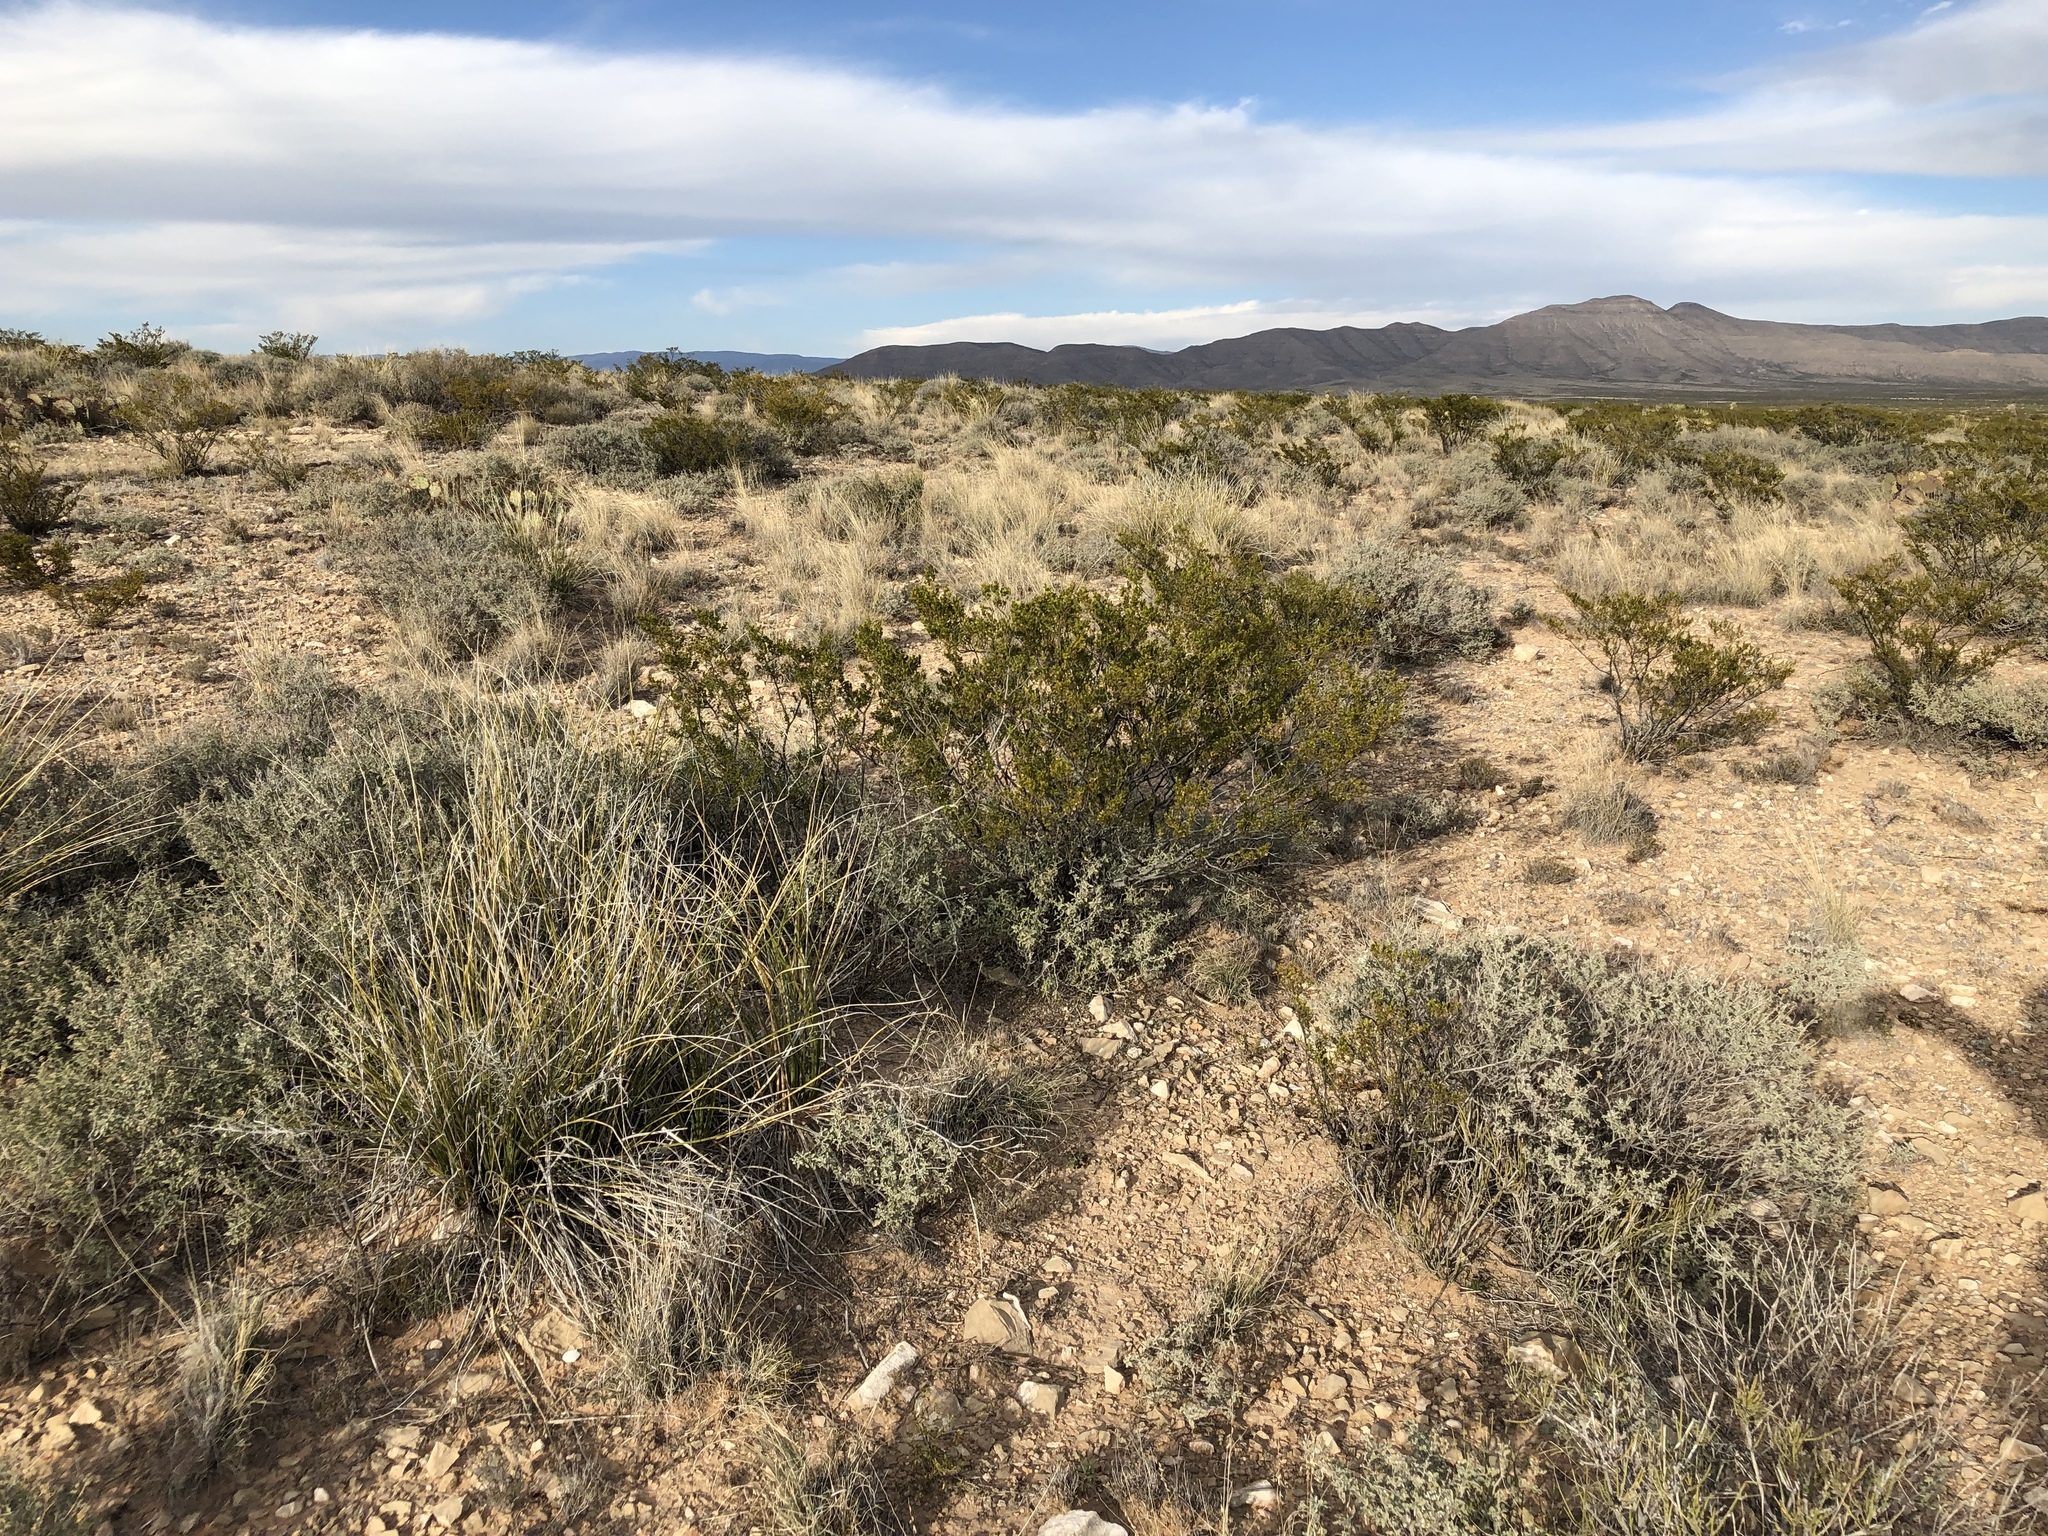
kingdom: Plantae
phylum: Tracheophyta
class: Magnoliopsida
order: Zygophyllales
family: Zygophyllaceae
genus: Larrea
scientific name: Larrea tridentata
